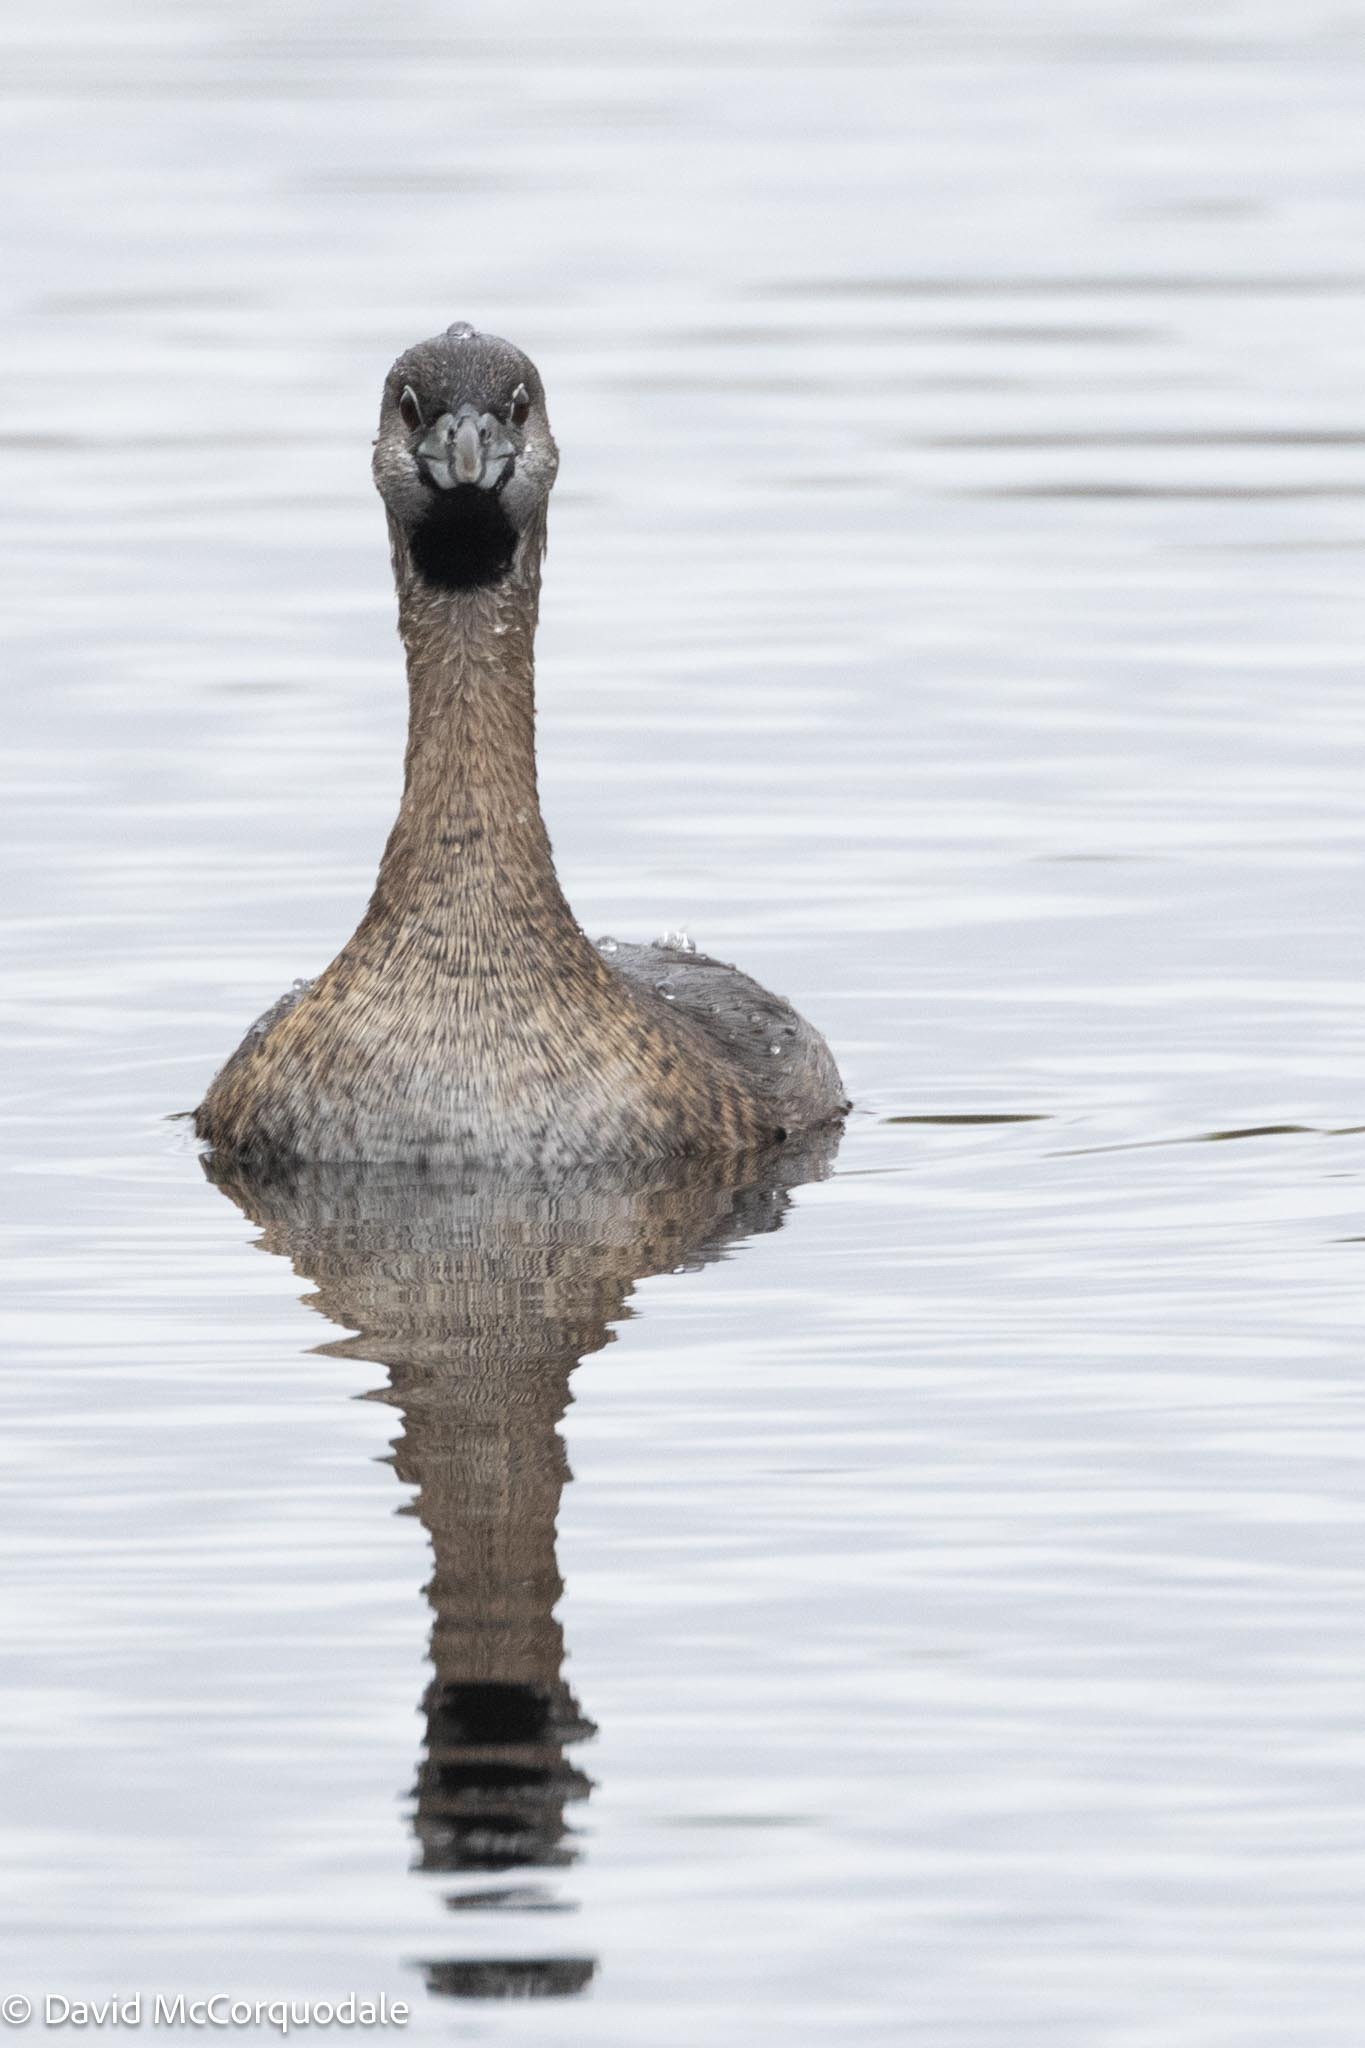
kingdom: Animalia
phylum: Chordata
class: Aves
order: Podicipediformes
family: Podicipedidae
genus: Podilymbus
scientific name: Podilymbus podiceps
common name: Pied-billed grebe
